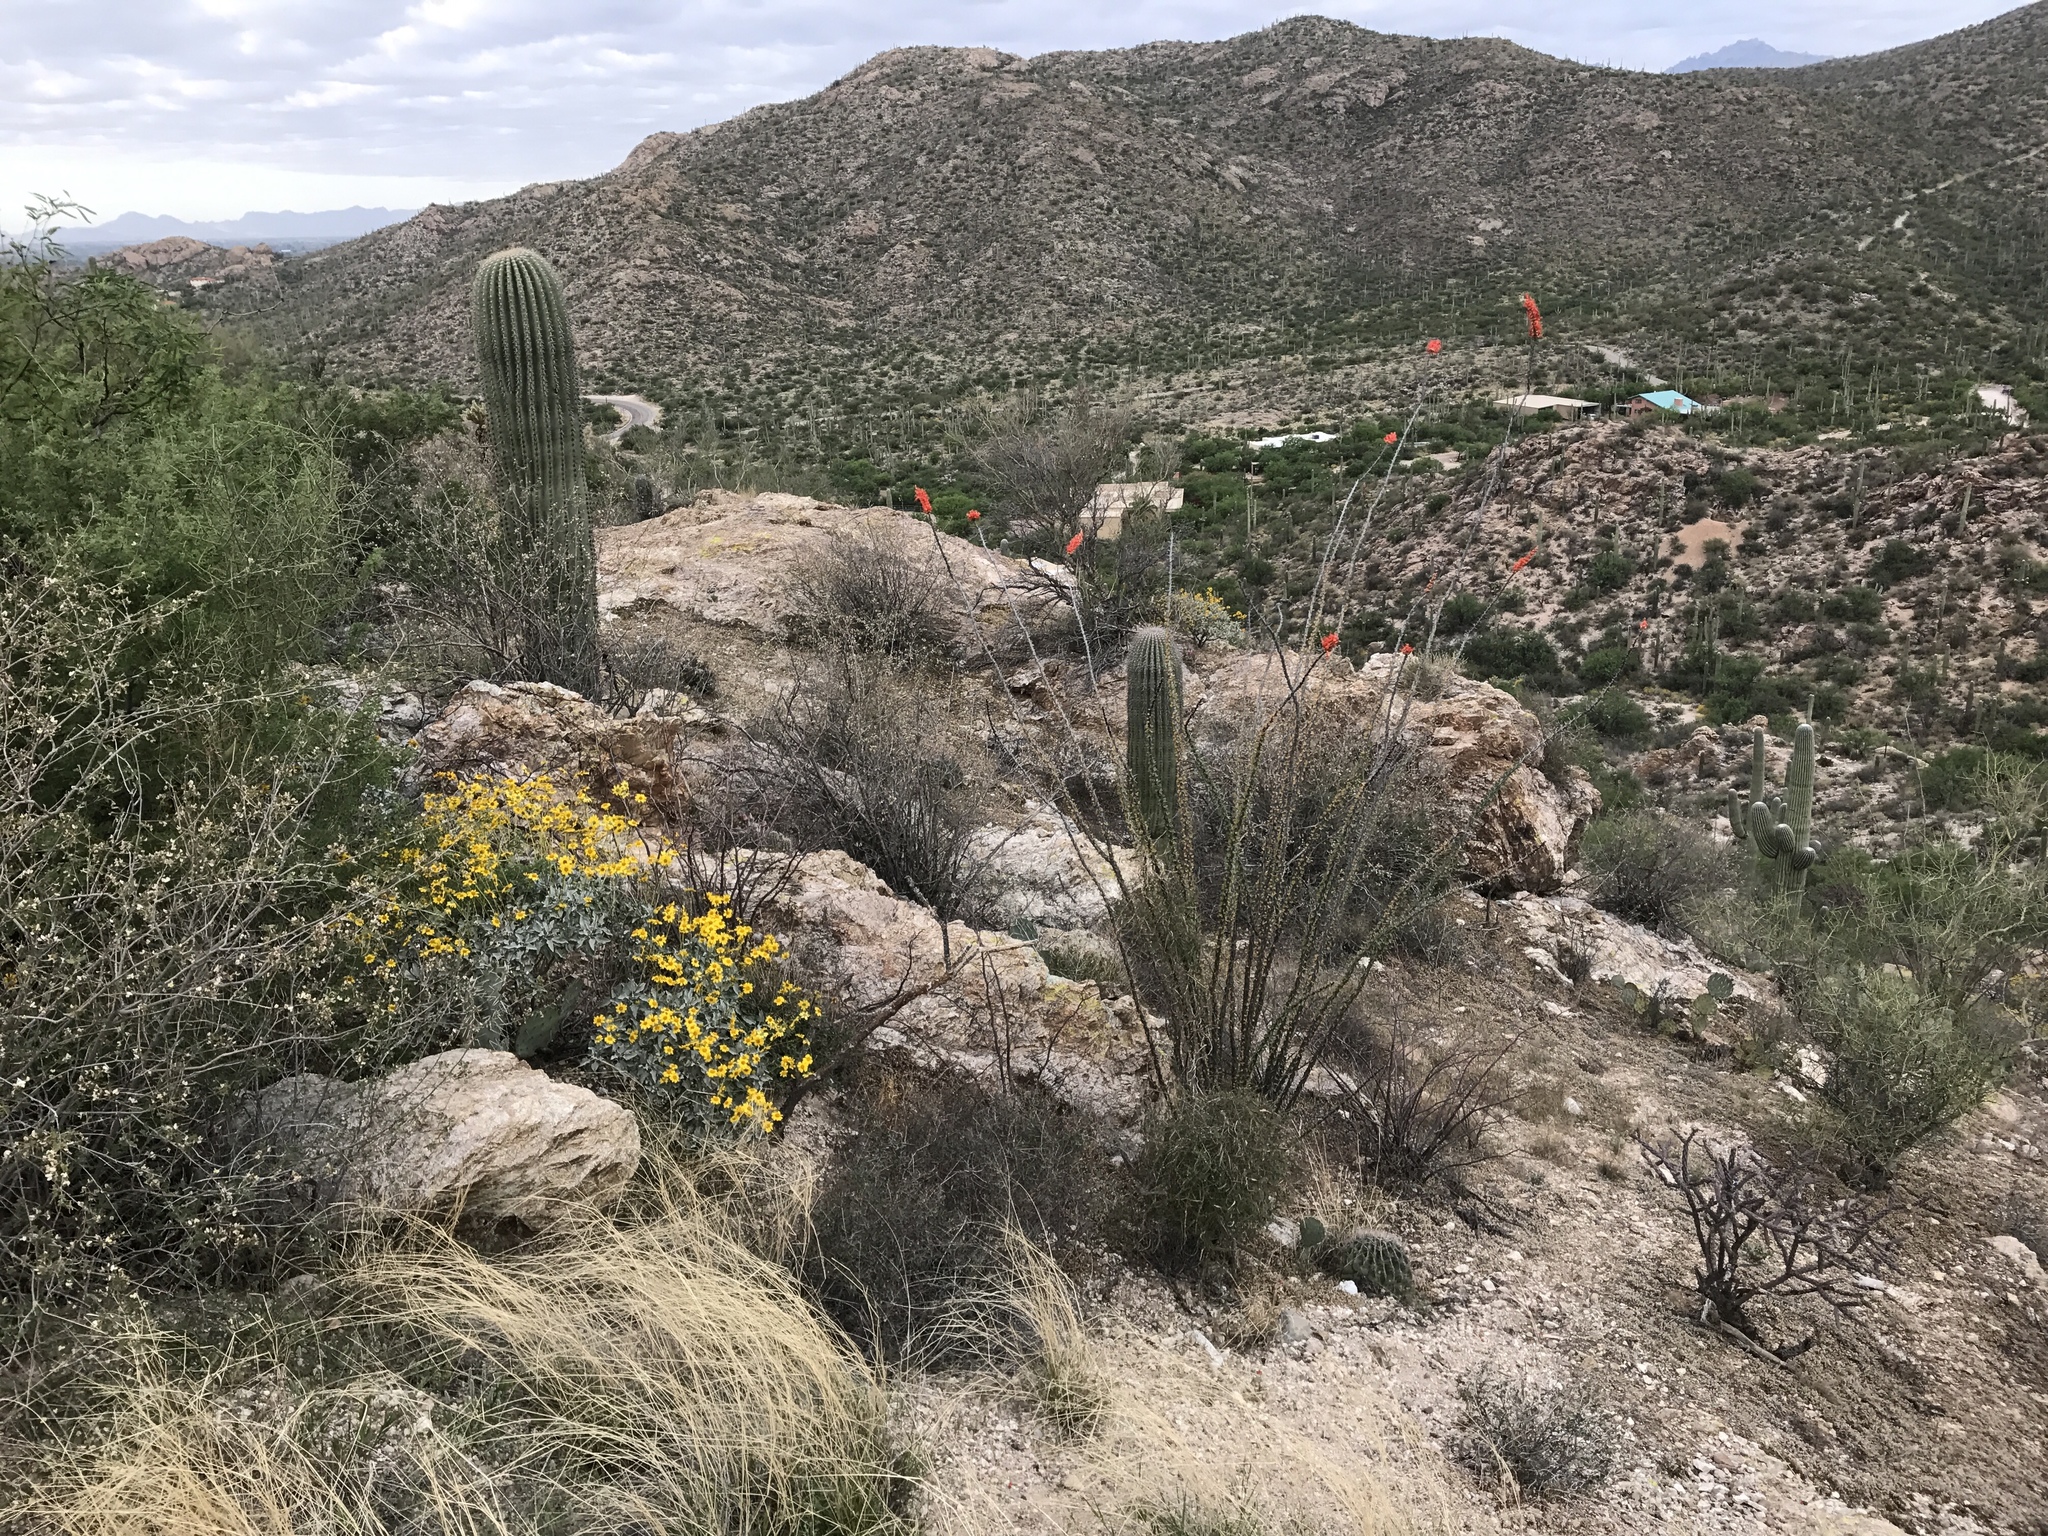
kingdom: Plantae
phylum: Tracheophyta
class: Magnoliopsida
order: Caryophyllales
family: Cactaceae
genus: Carnegiea
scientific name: Carnegiea gigantea
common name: Saguaro
